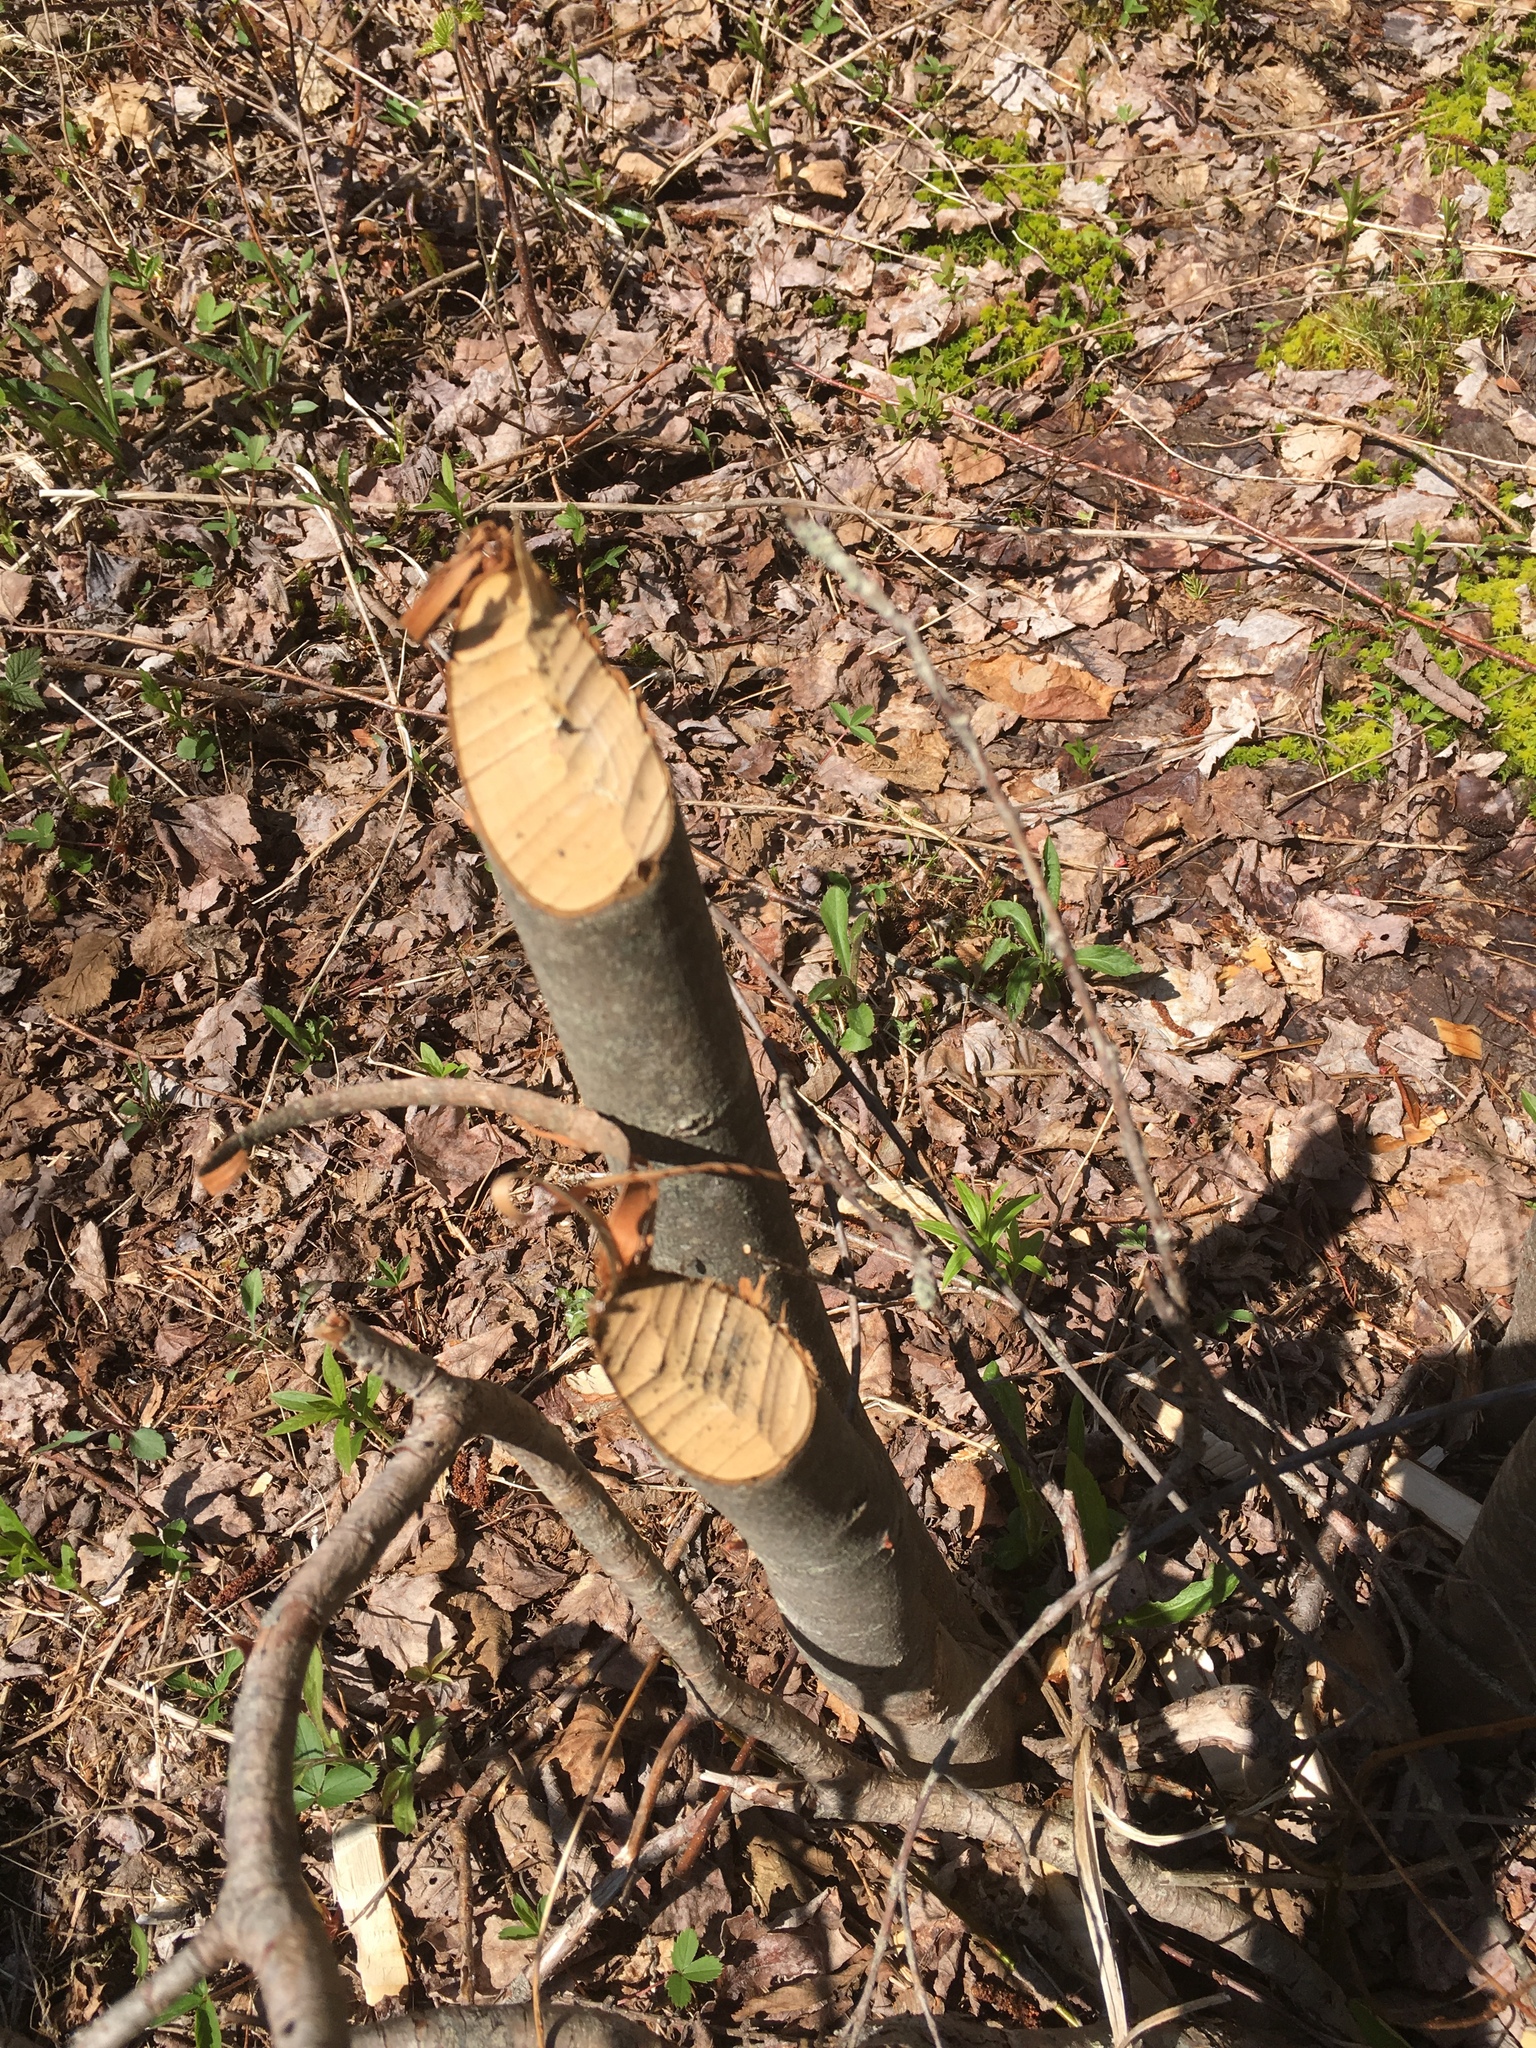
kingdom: Animalia
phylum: Chordata
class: Mammalia
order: Rodentia
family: Castoridae
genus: Castor
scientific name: Castor canadensis
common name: American beaver
